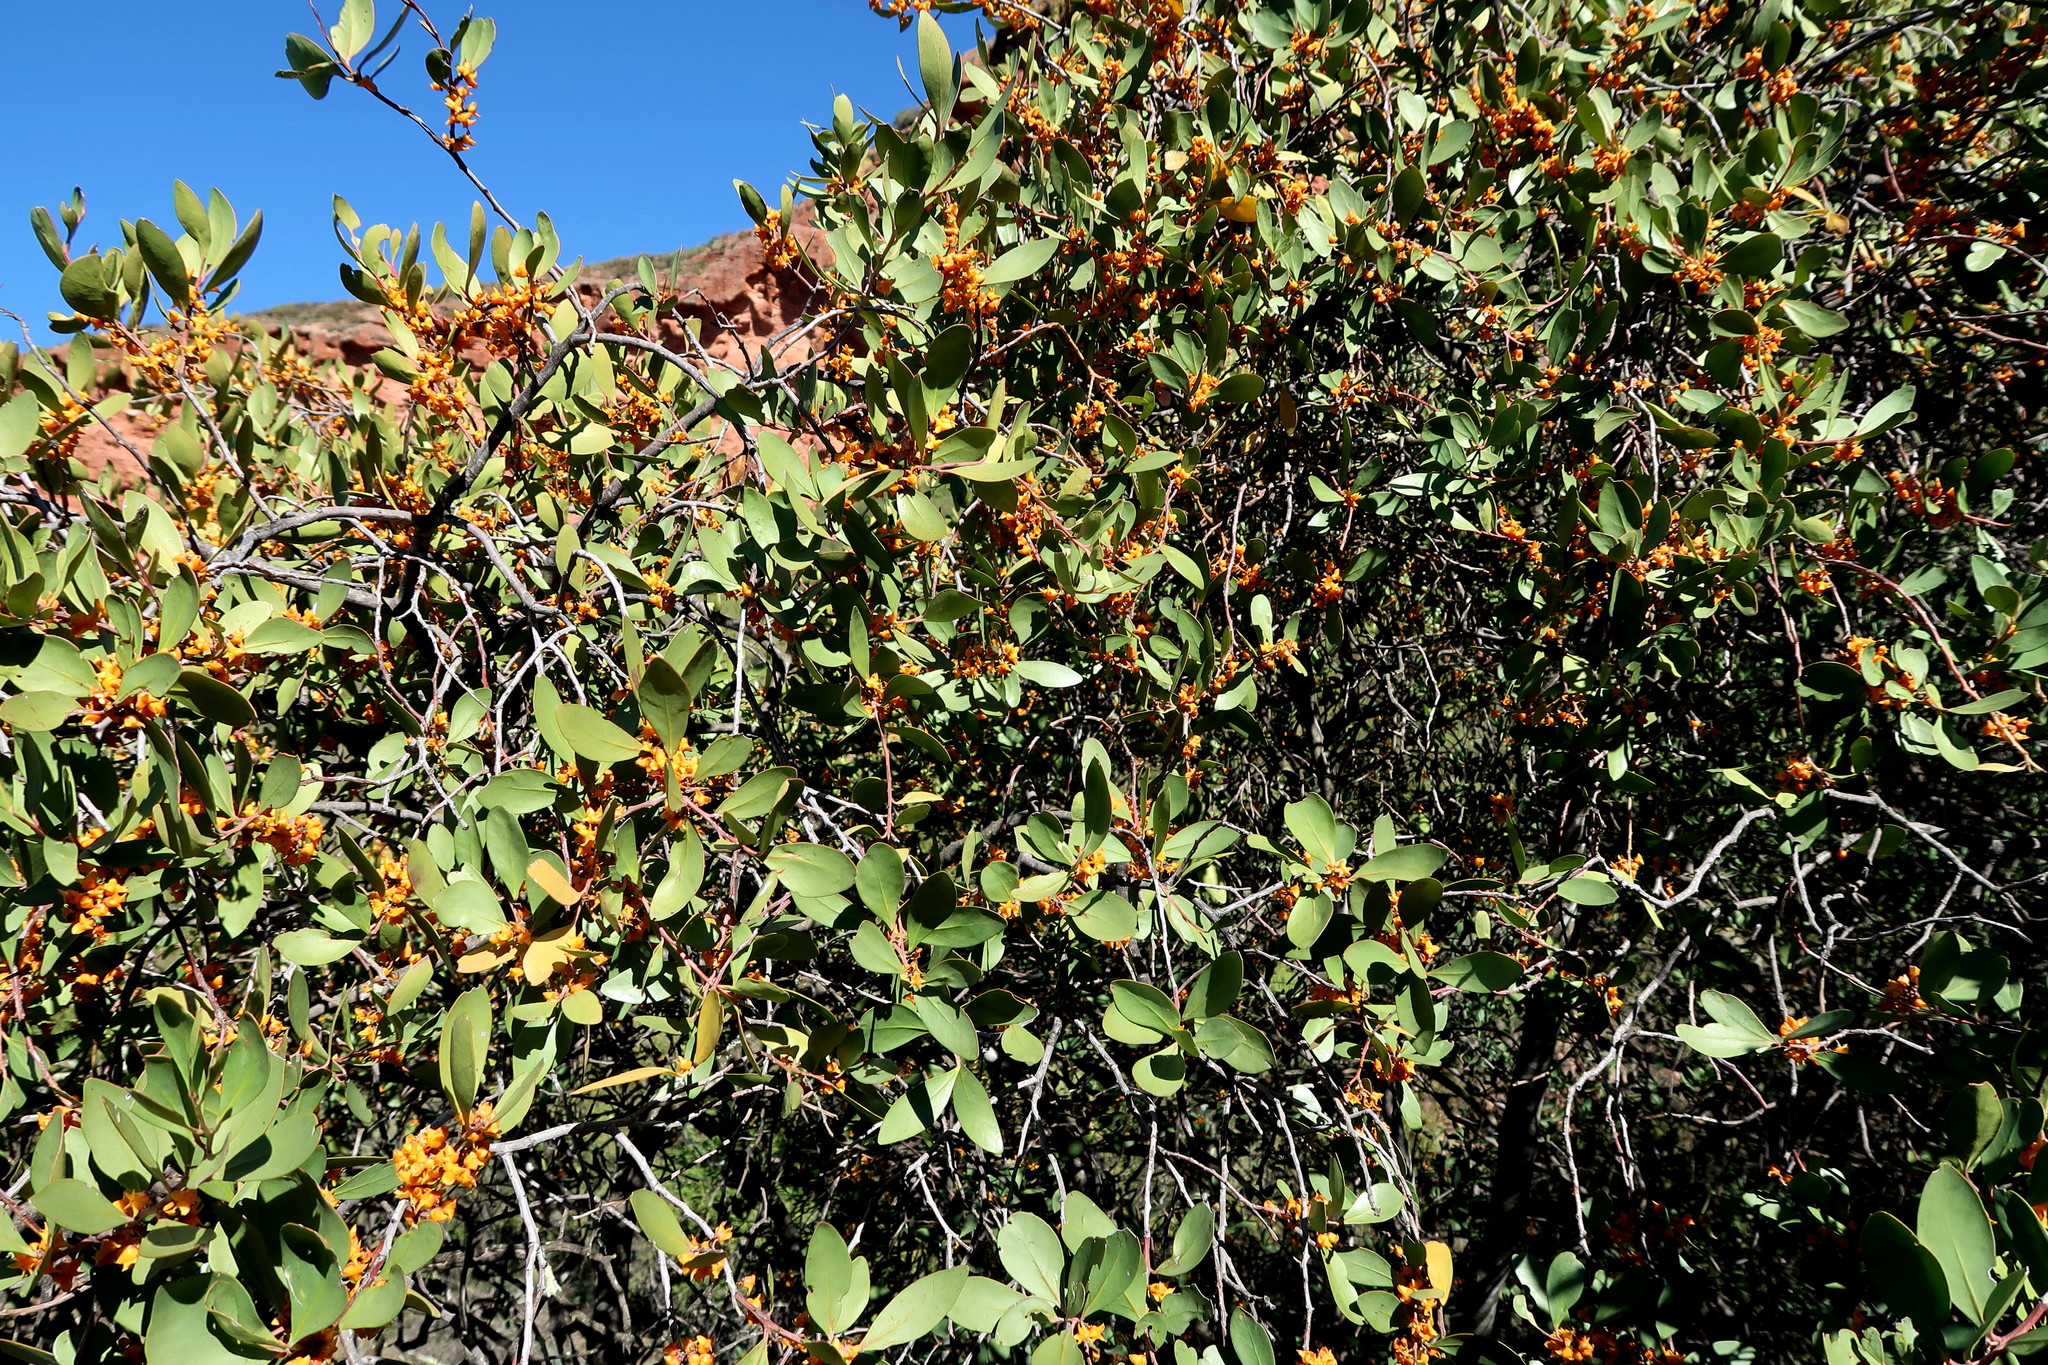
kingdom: Plantae
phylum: Tracheophyta
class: Magnoliopsida
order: Celastrales
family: Celastraceae
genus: Pterocelastrus
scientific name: Pterocelastrus tricuspidatus
